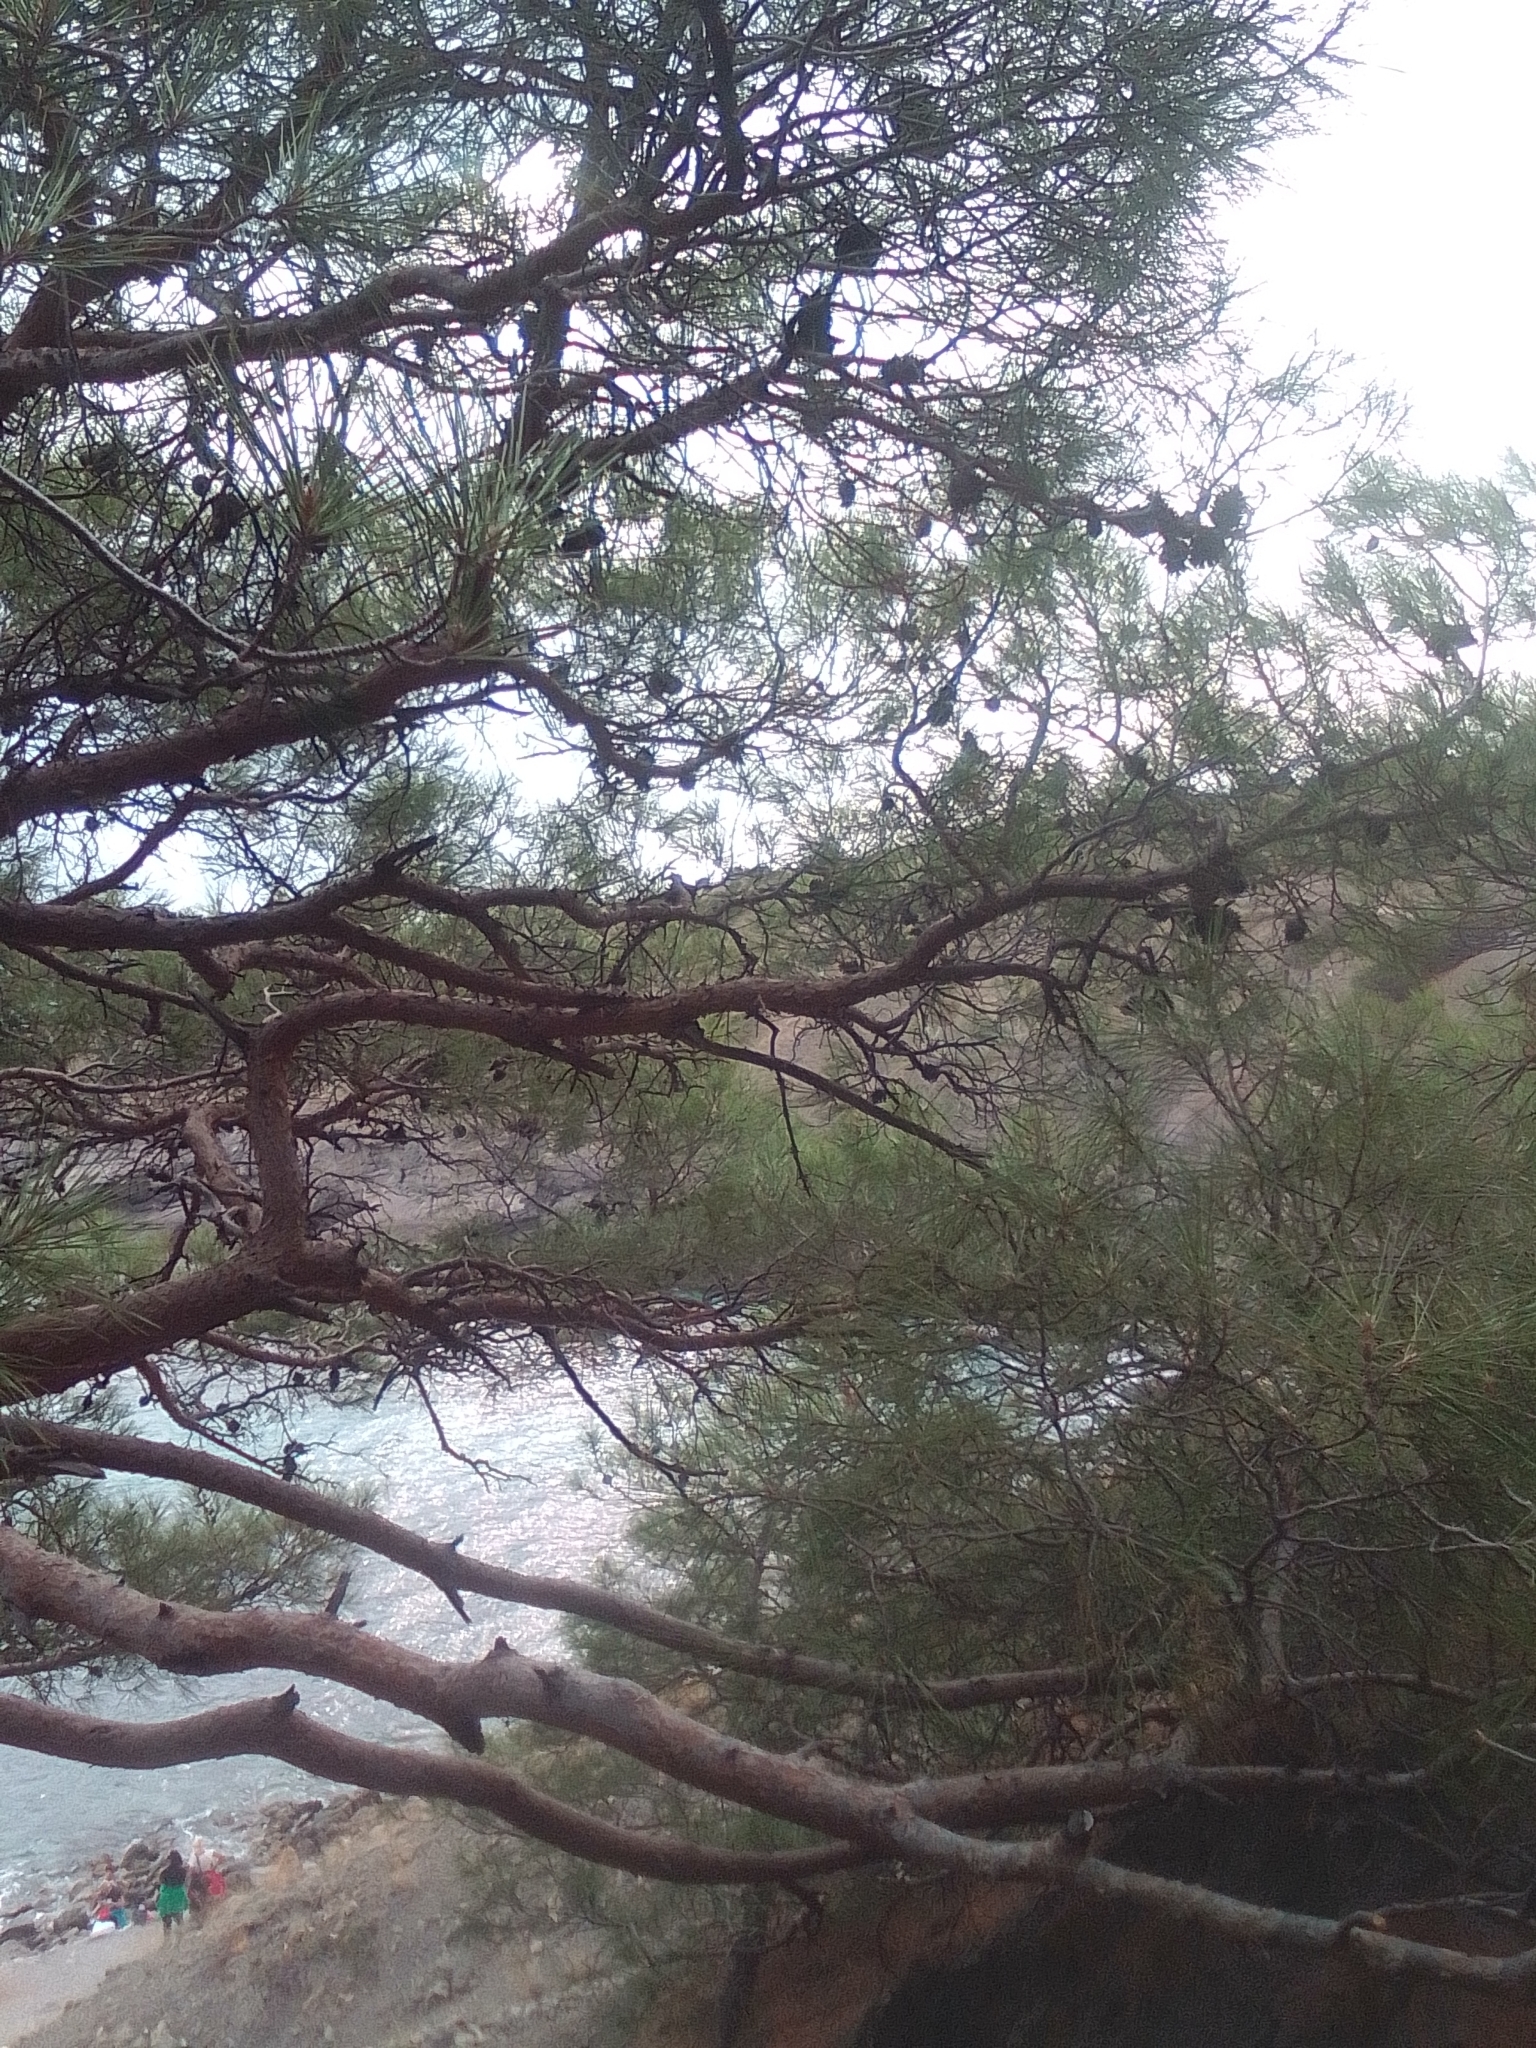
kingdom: Plantae
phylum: Tracheophyta
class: Pinopsida
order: Pinales
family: Pinaceae
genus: Pinus
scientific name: Pinus brutia
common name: Turkish pine
